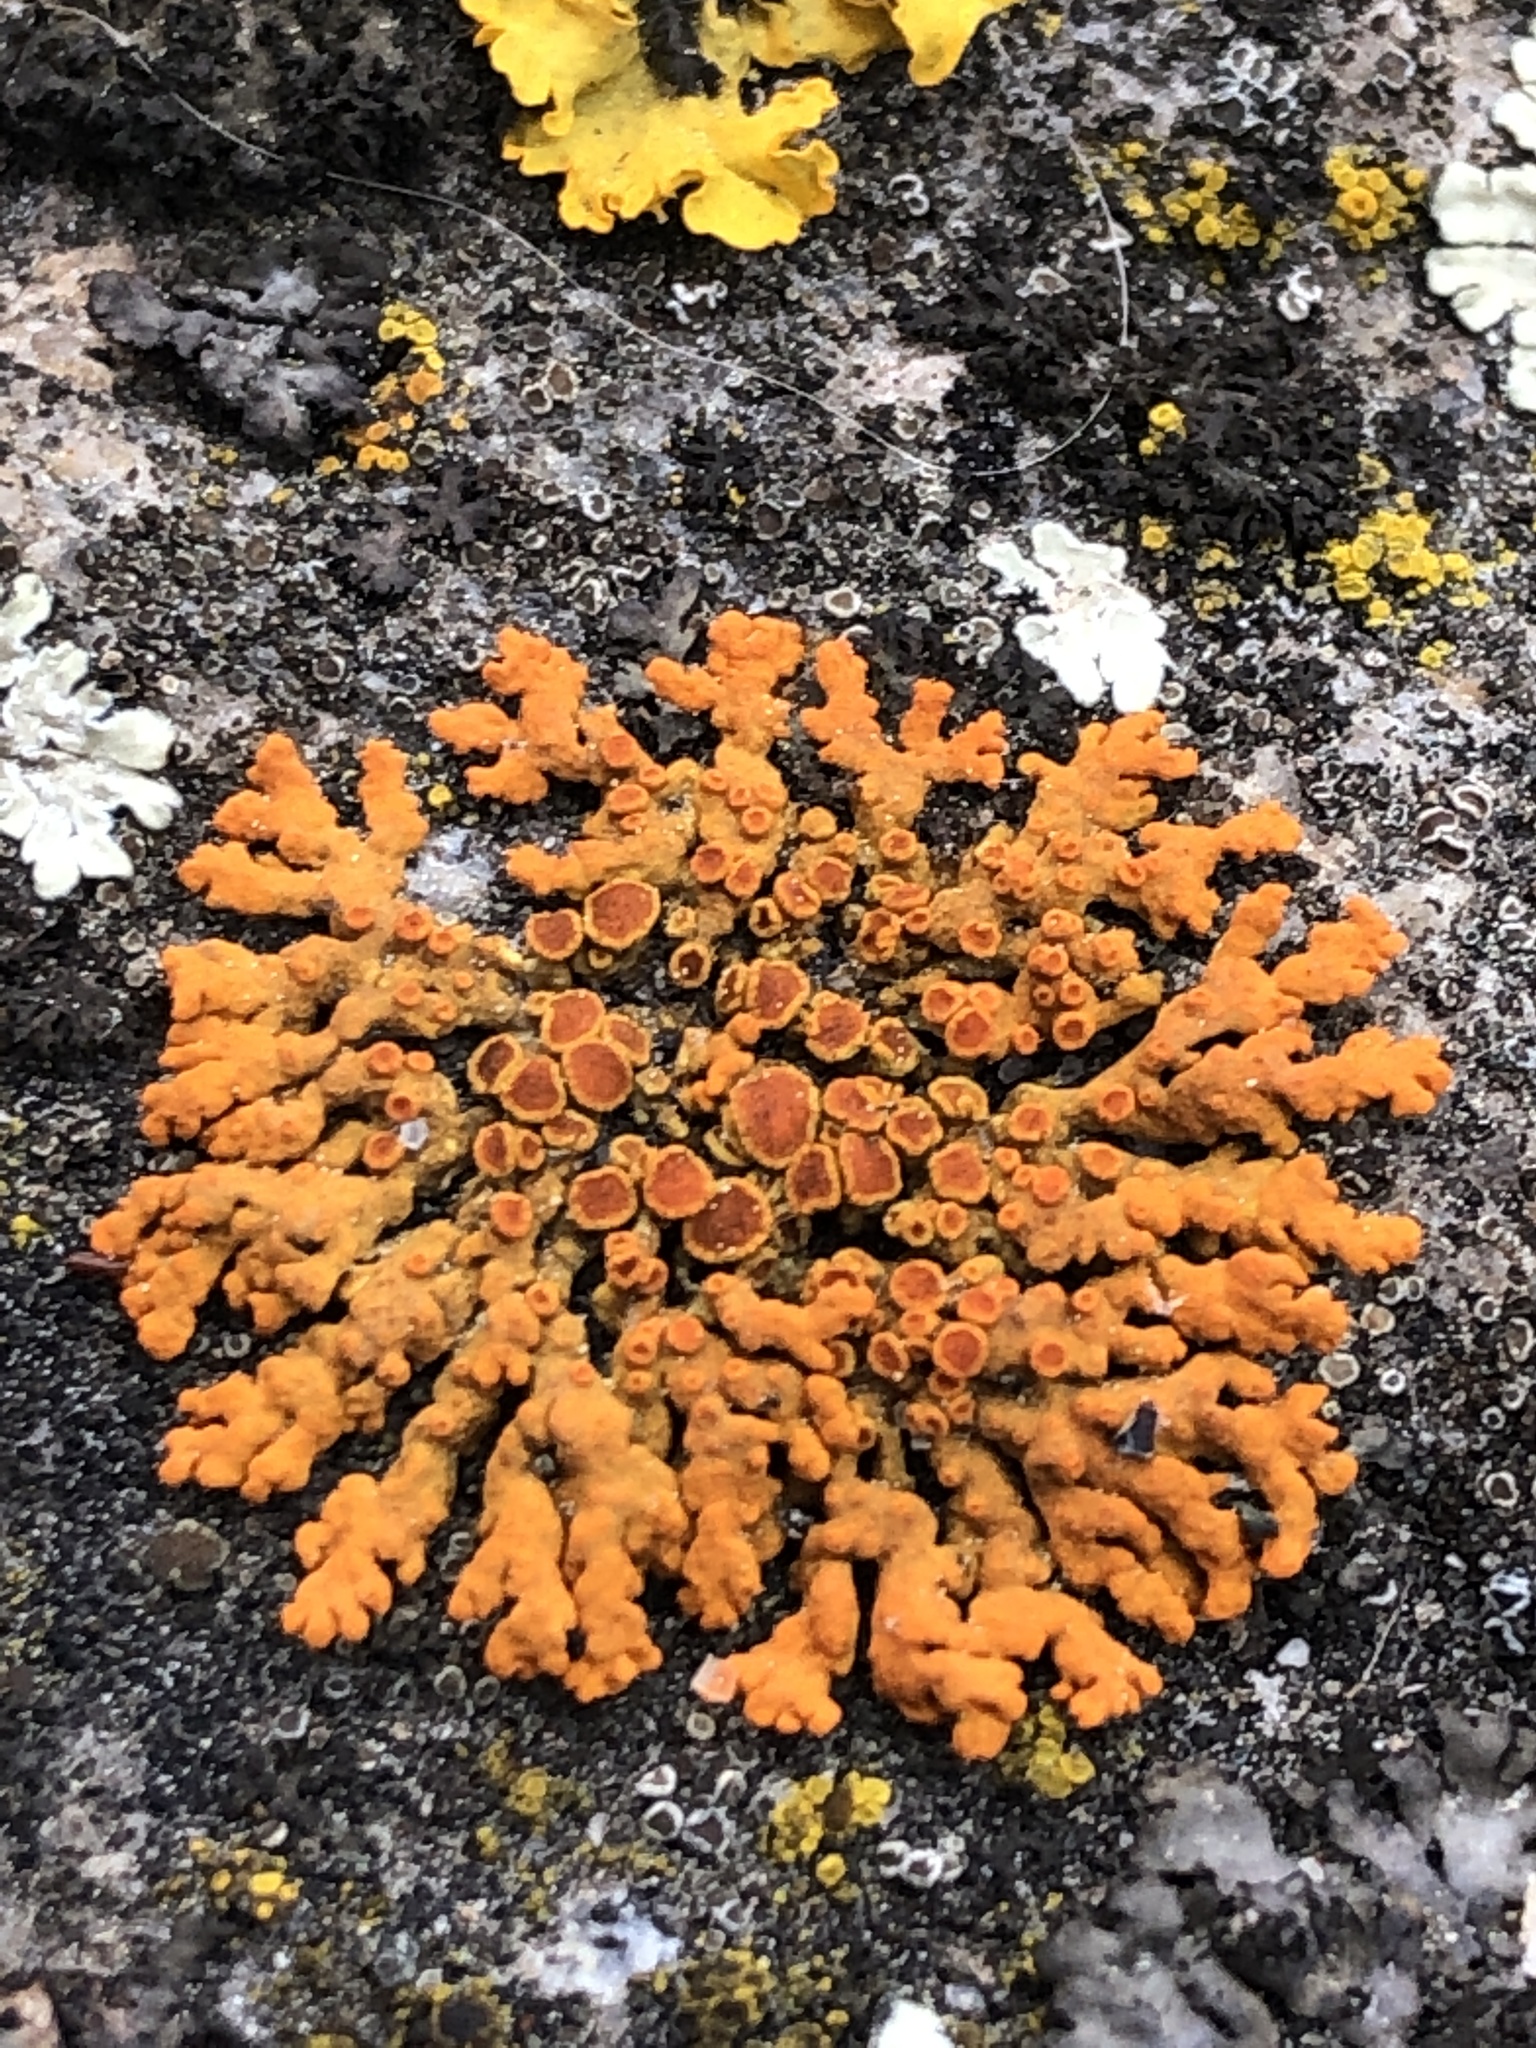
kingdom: Fungi
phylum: Ascomycota
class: Lecanoromycetes
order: Teloschistales
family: Teloschistaceae
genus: Xanthoria
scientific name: Xanthoria elegans
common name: Elegant sunburst lichen
